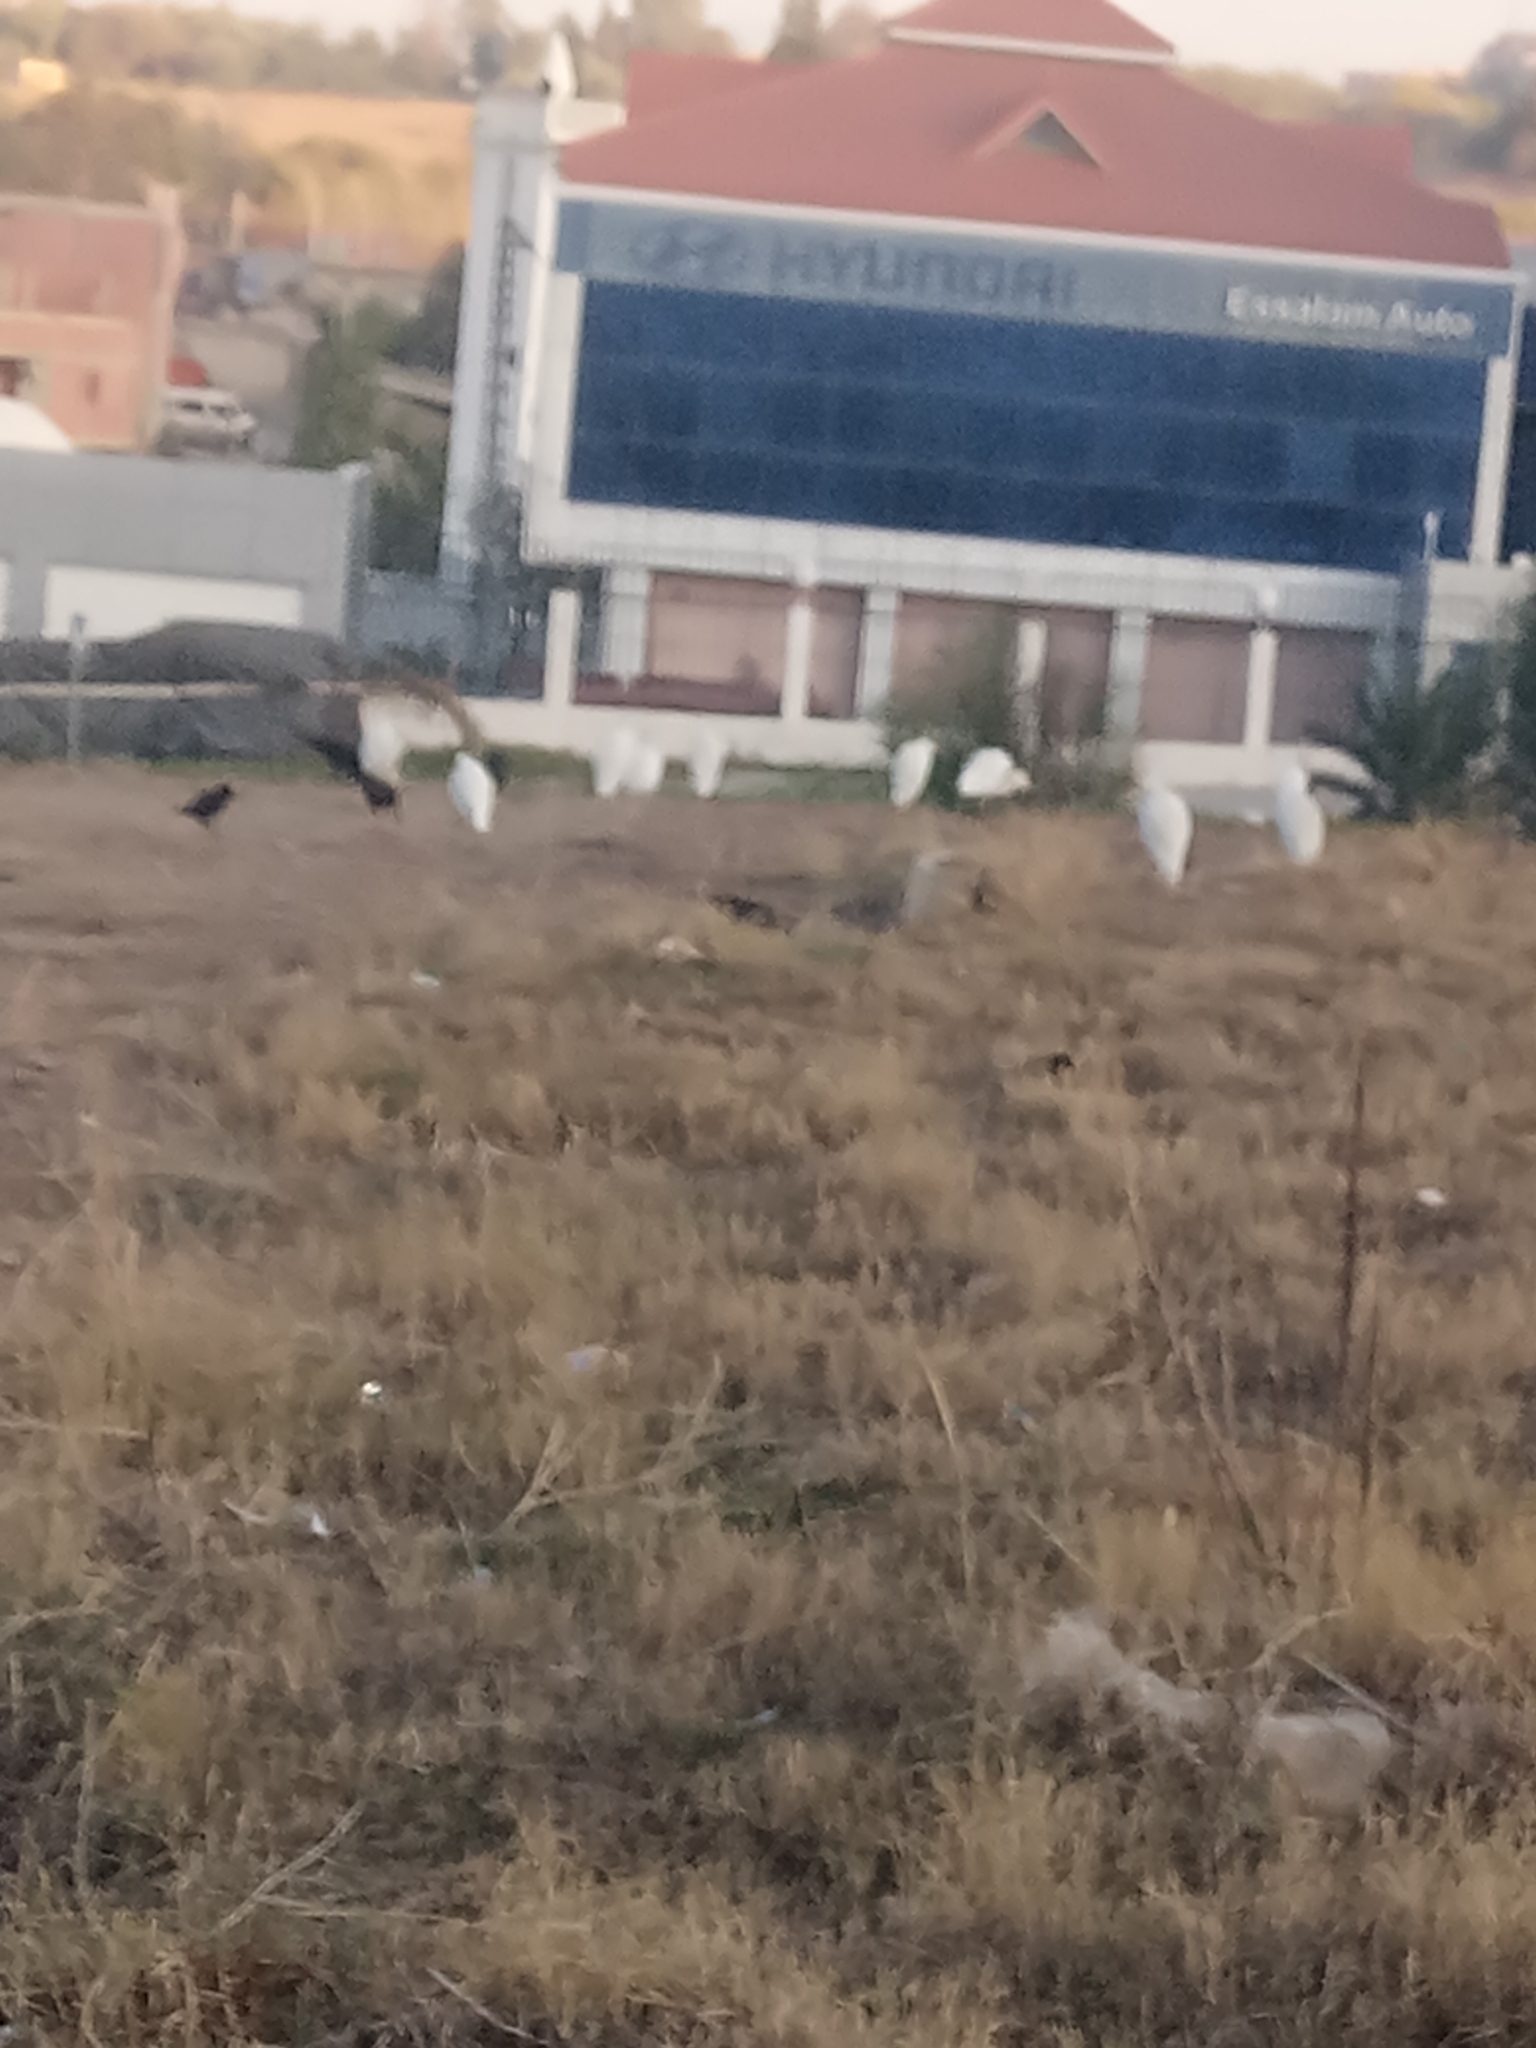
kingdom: Animalia
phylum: Chordata
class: Aves
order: Pelecaniformes
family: Ardeidae
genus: Bubulcus
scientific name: Bubulcus ibis
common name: Cattle egret
